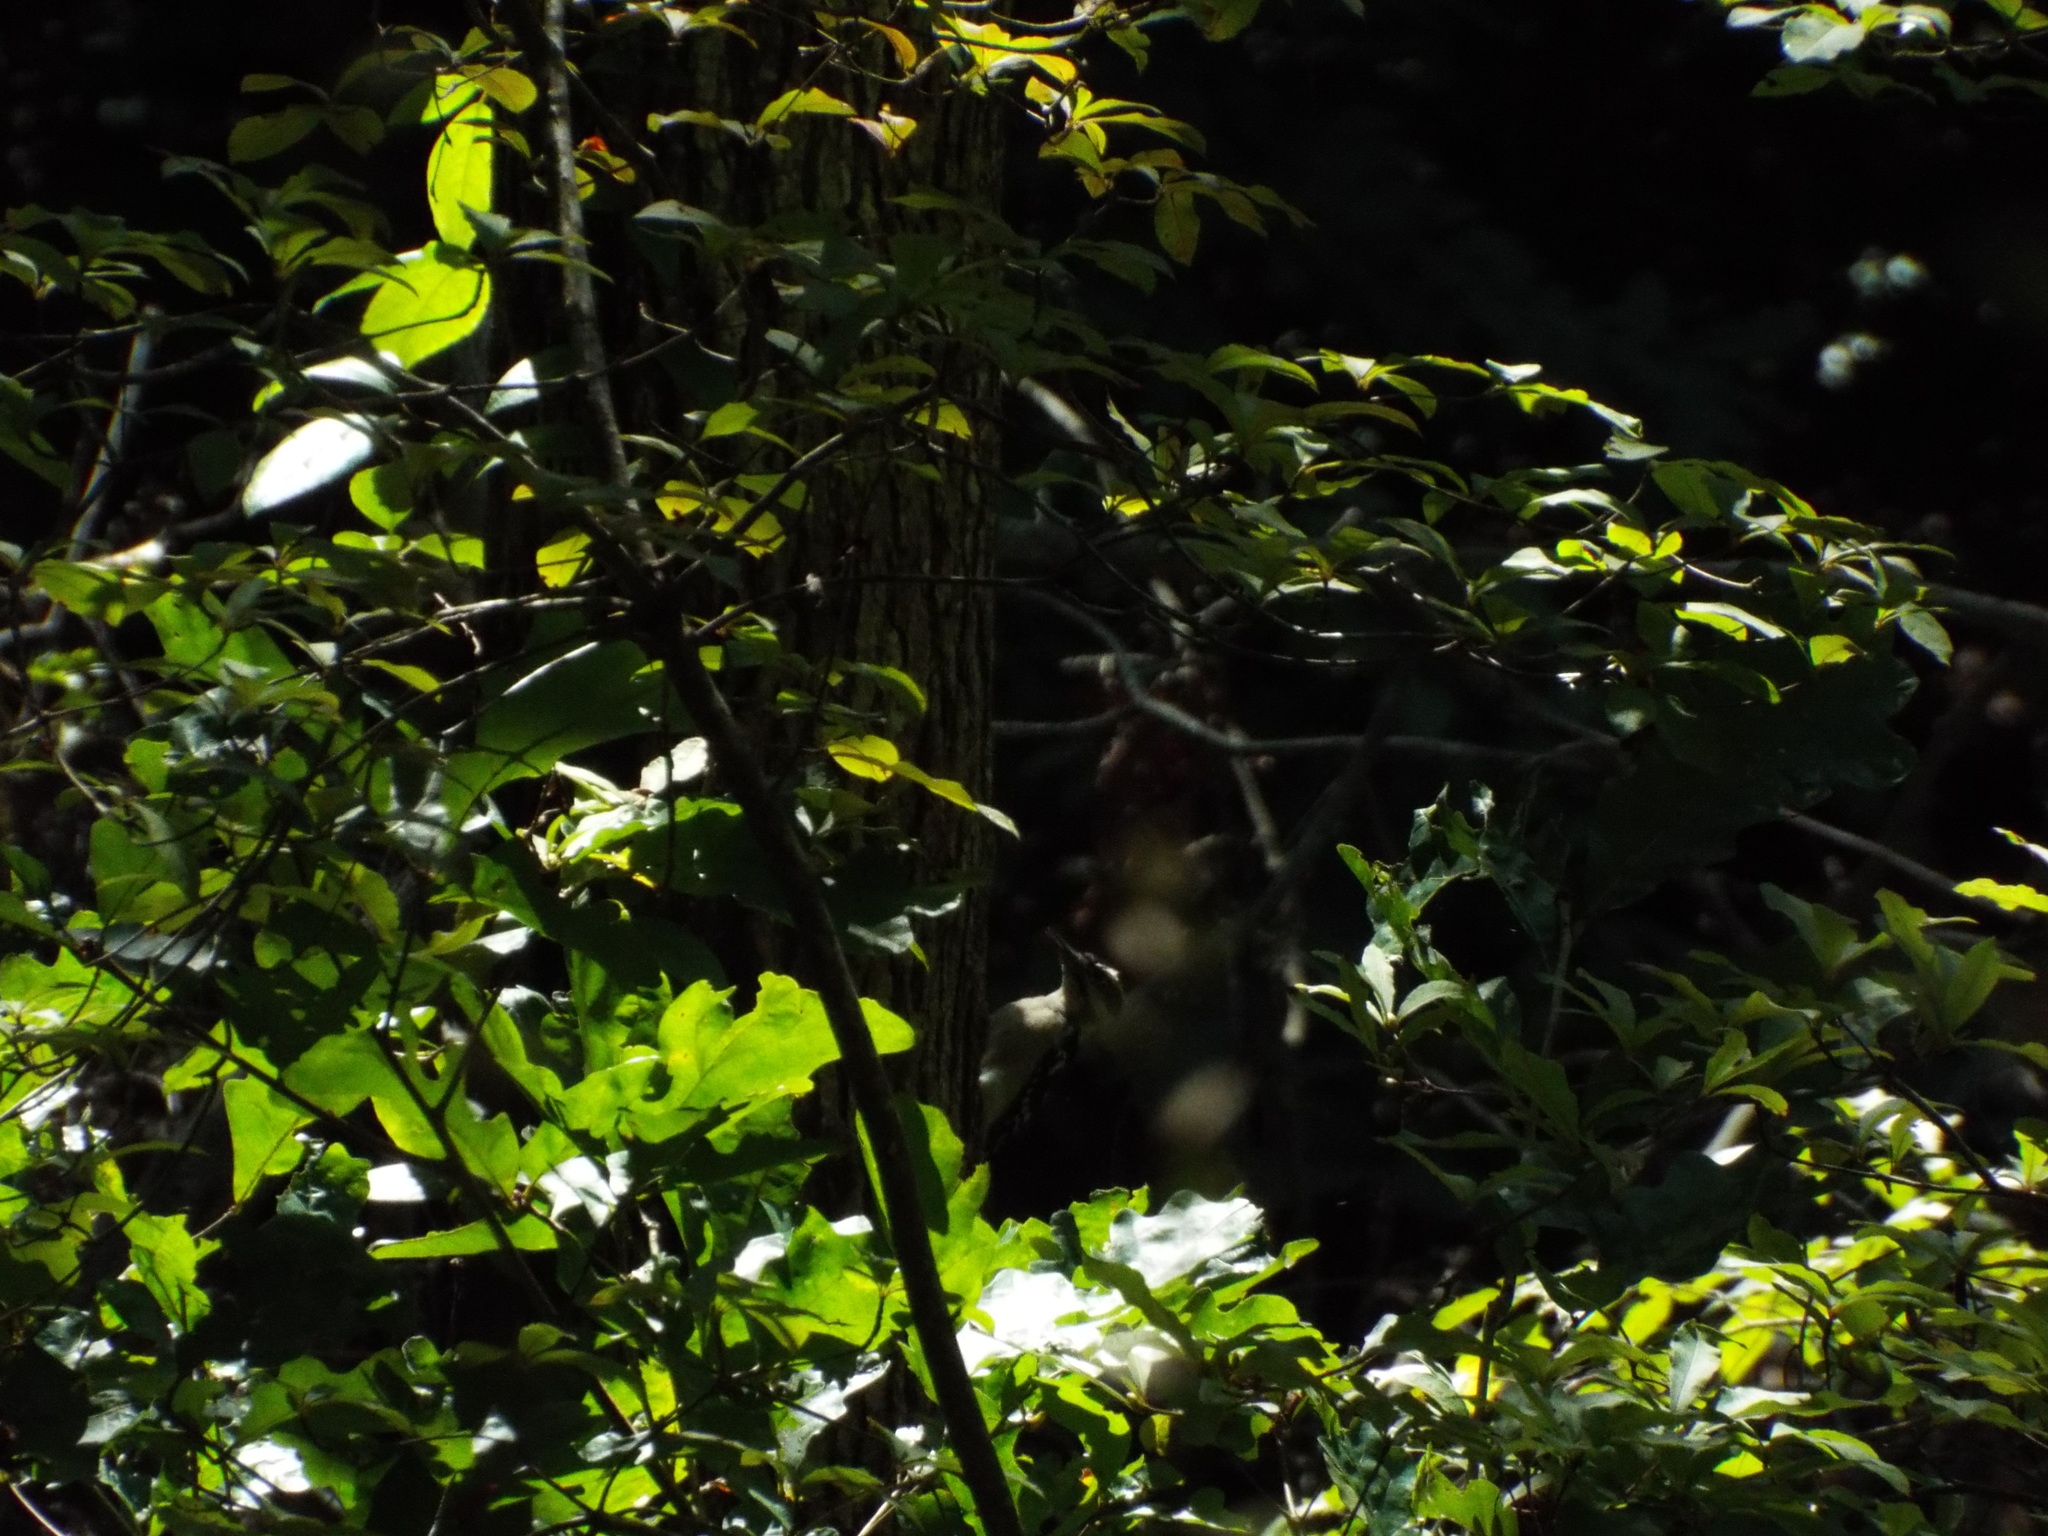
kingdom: Animalia
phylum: Chordata
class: Aves
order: Piciformes
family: Picidae
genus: Leuconotopicus
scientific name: Leuconotopicus villosus
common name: Hairy woodpecker
